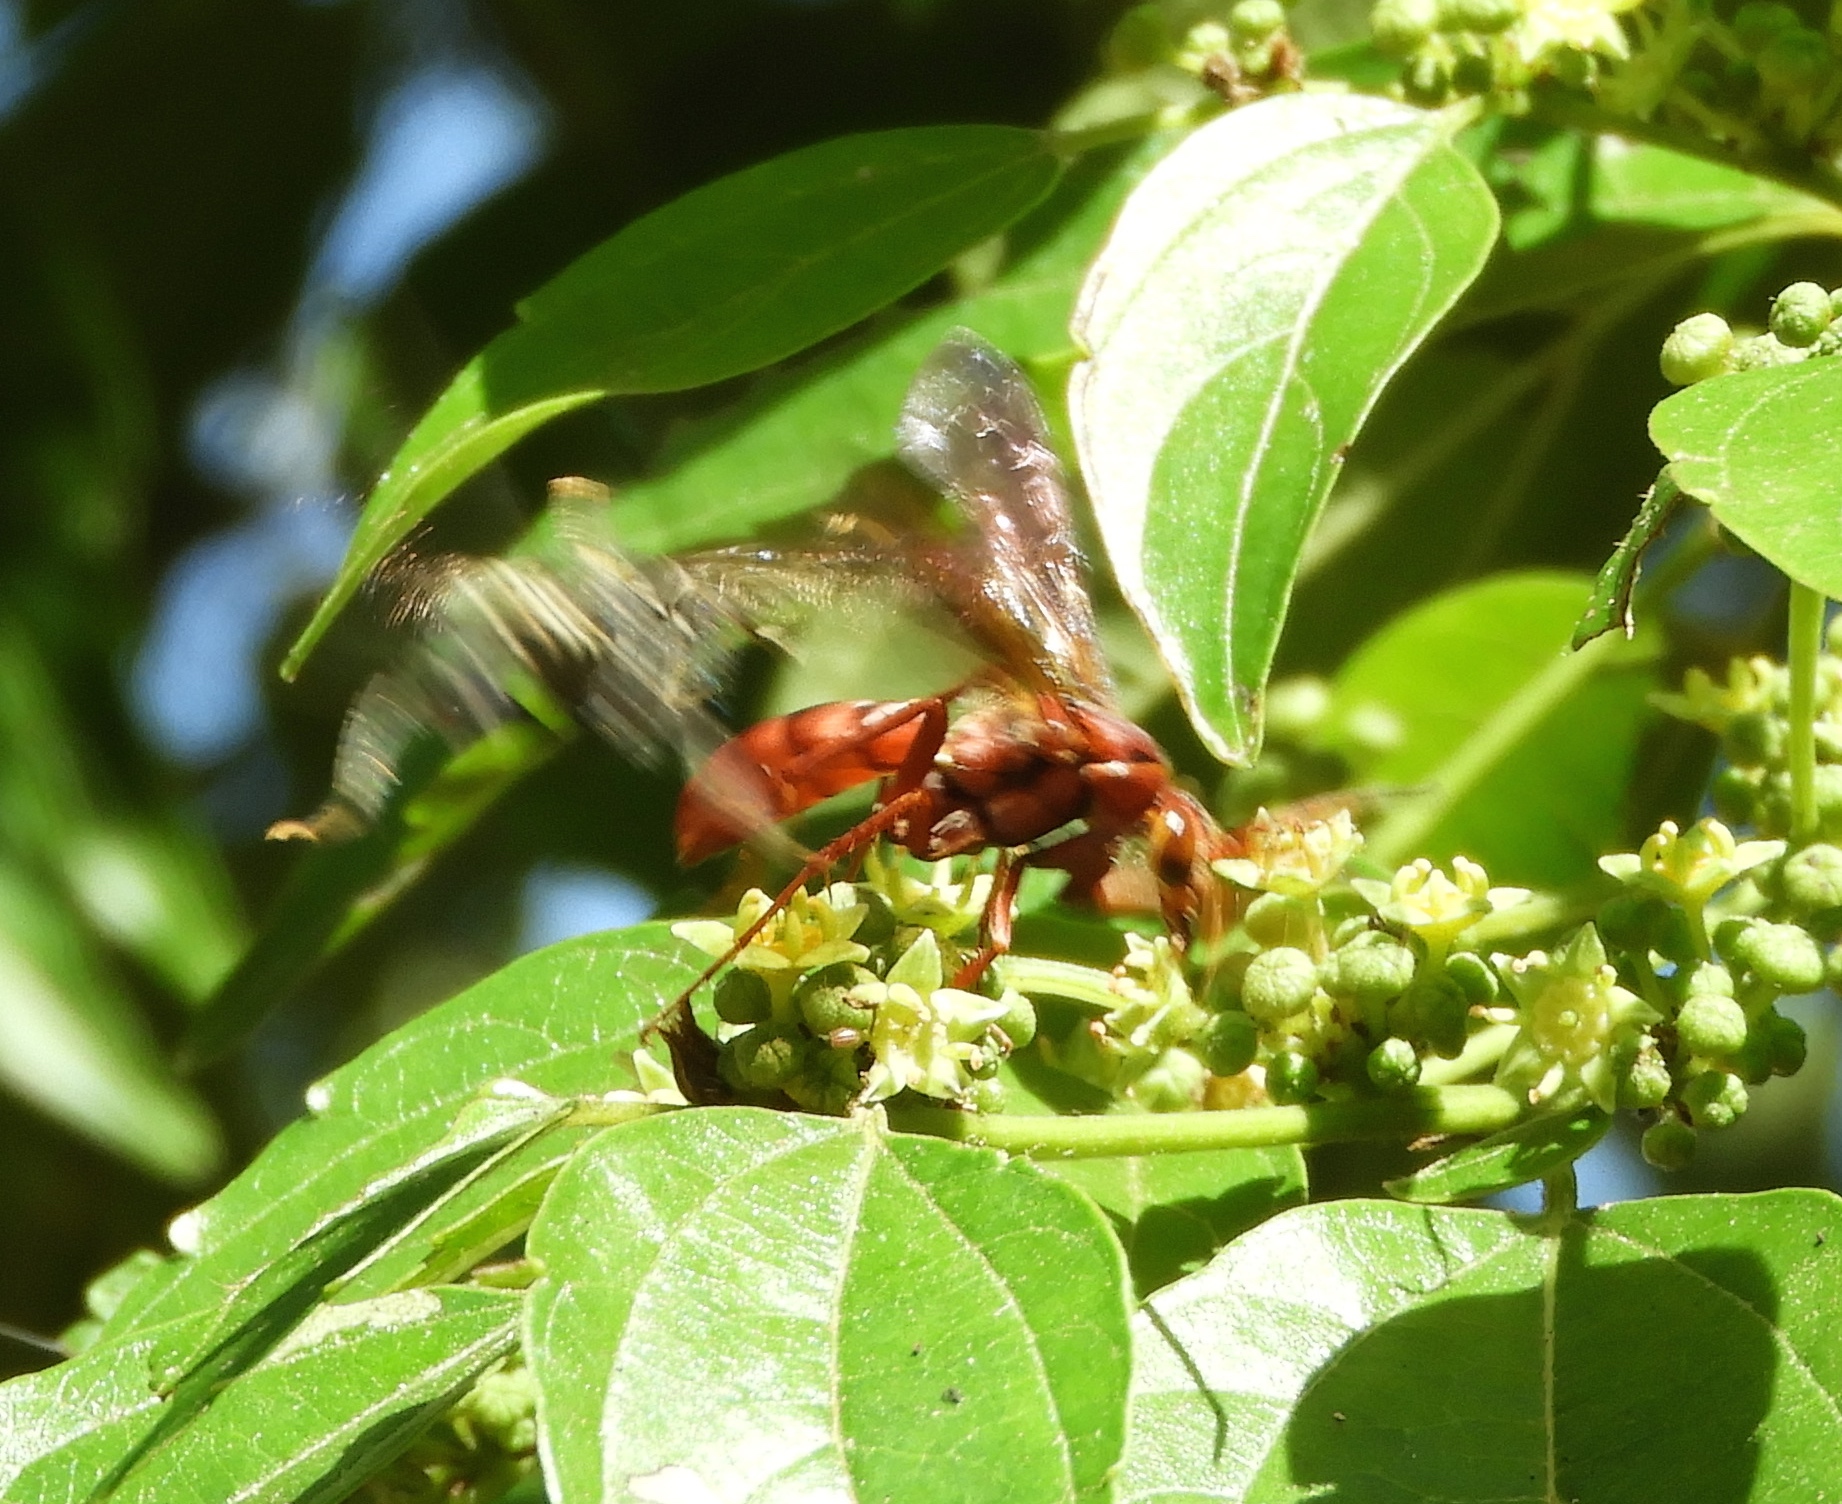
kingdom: Animalia
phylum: Arthropoda
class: Insecta
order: Hymenoptera
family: Pompilidae
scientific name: Pompilidae
